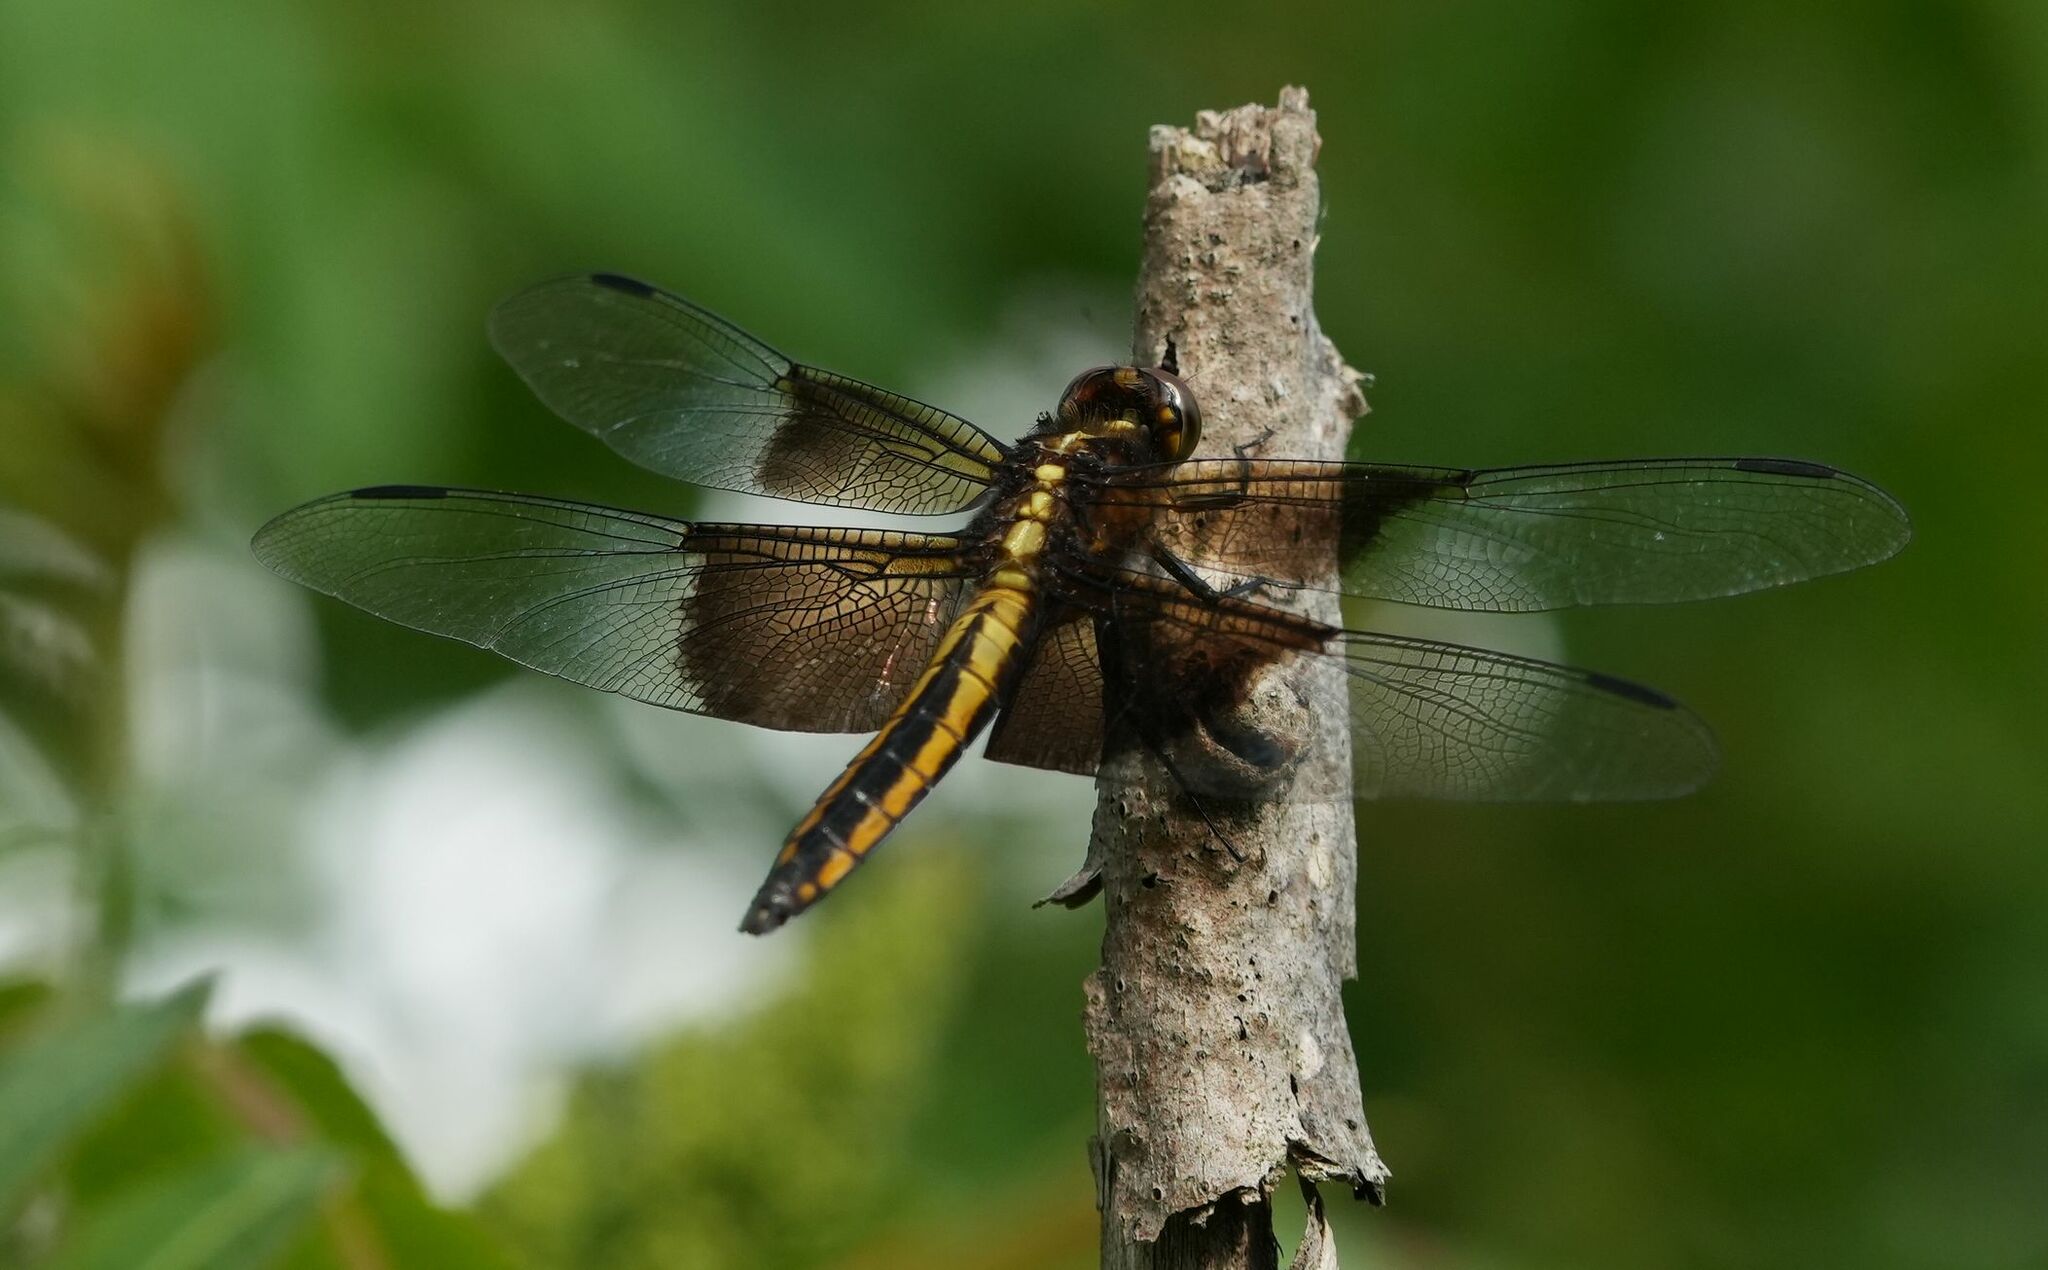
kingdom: Animalia
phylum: Arthropoda
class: Insecta
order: Odonata
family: Libellulidae
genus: Libellula
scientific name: Libellula luctuosa
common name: Widow skimmer
